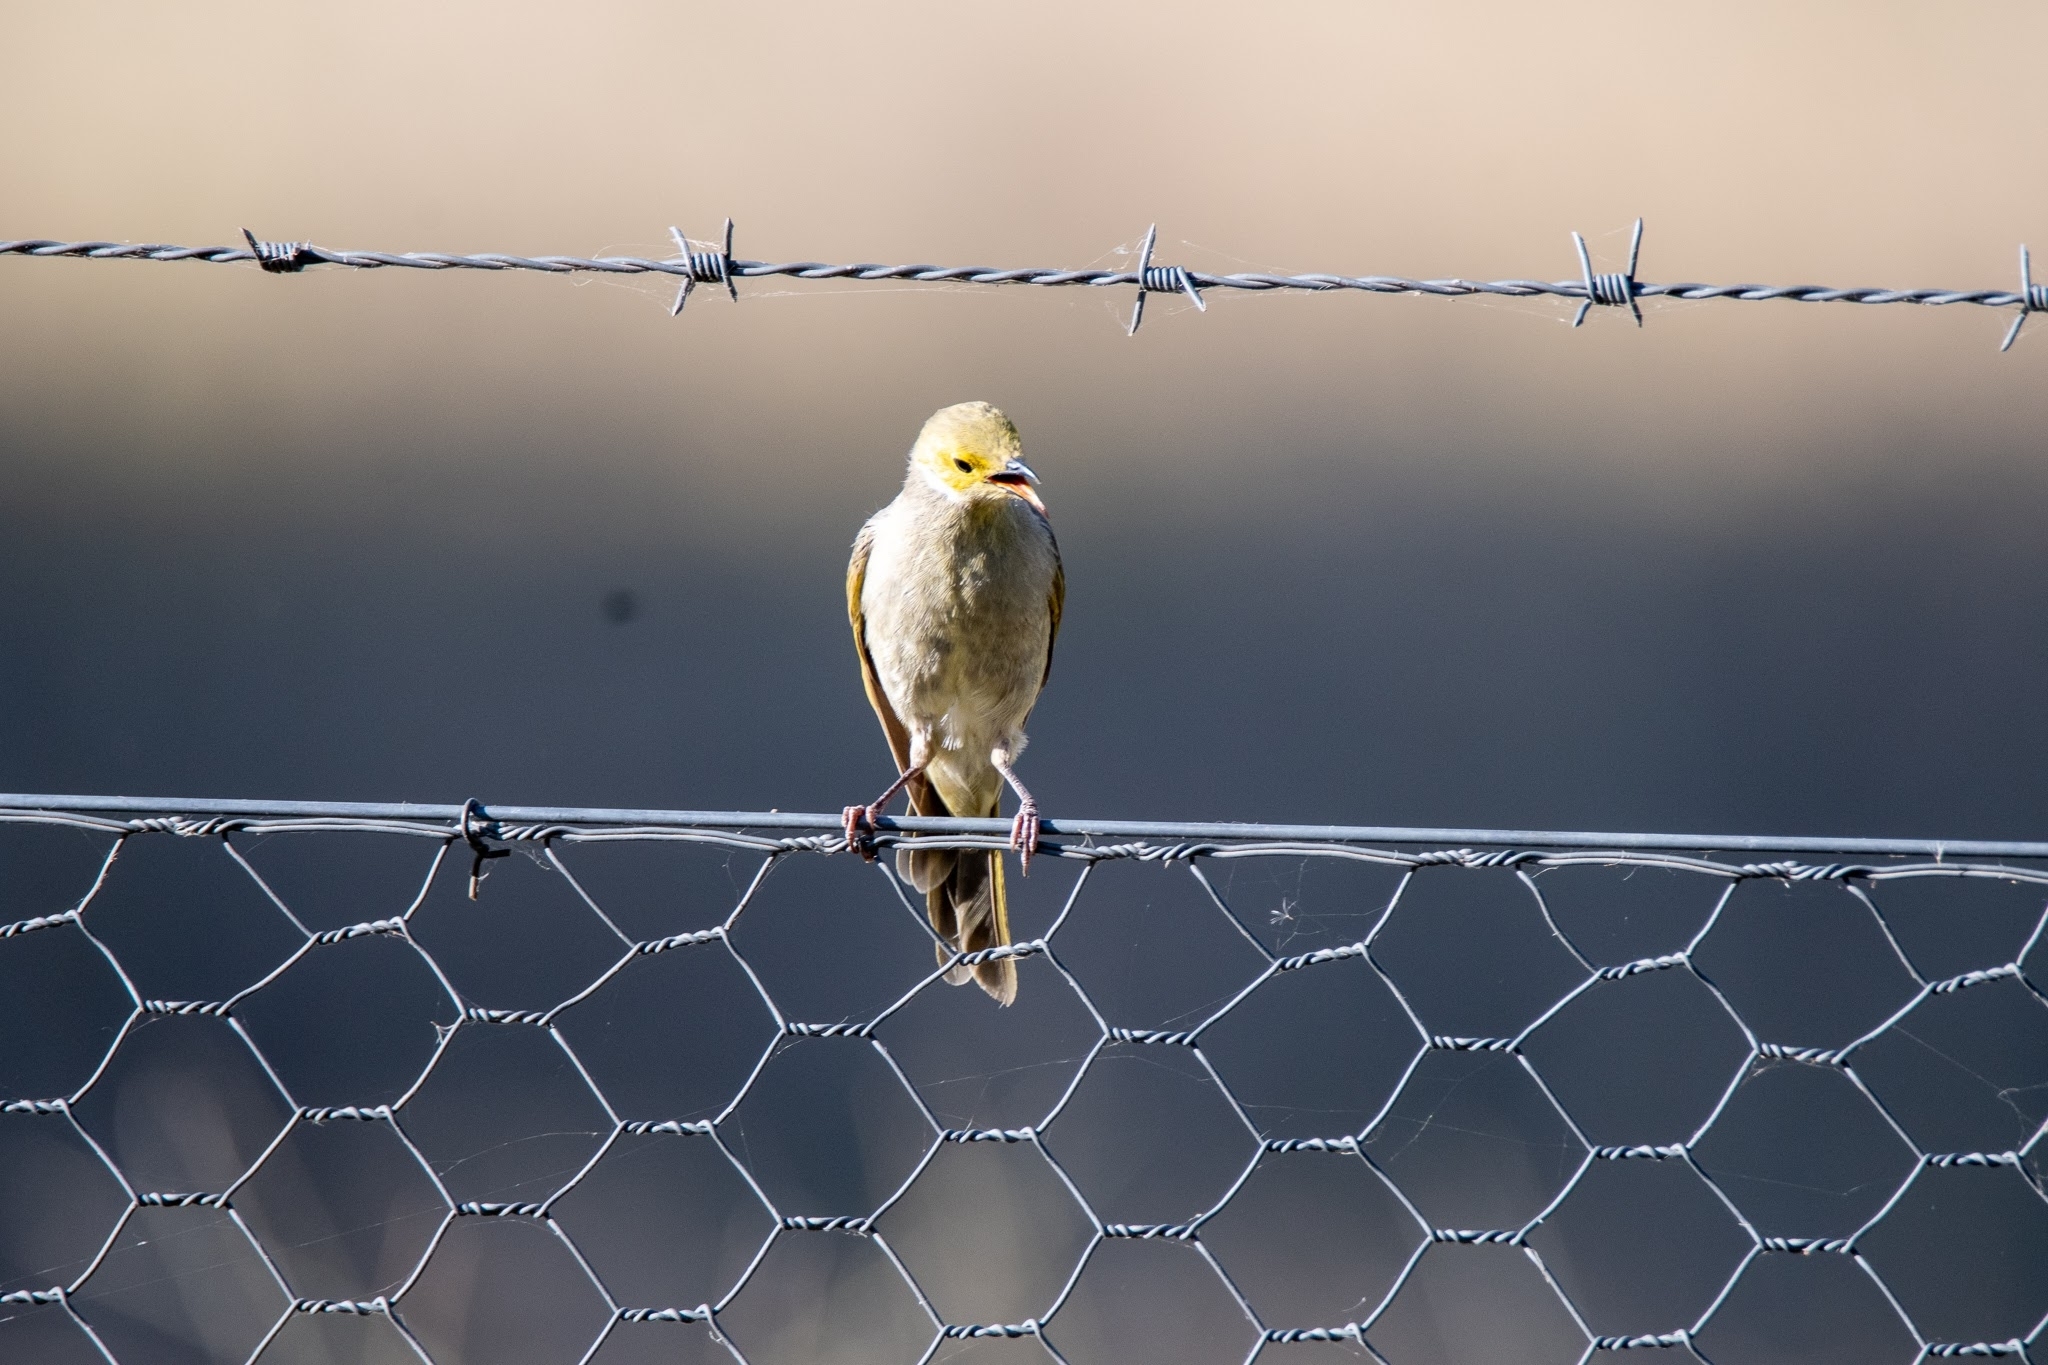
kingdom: Animalia
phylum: Chordata
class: Aves
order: Passeriformes
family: Meliphagidae
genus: Ptilotula
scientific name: Ptilotula penicillata
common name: White-plumed honeyeater
